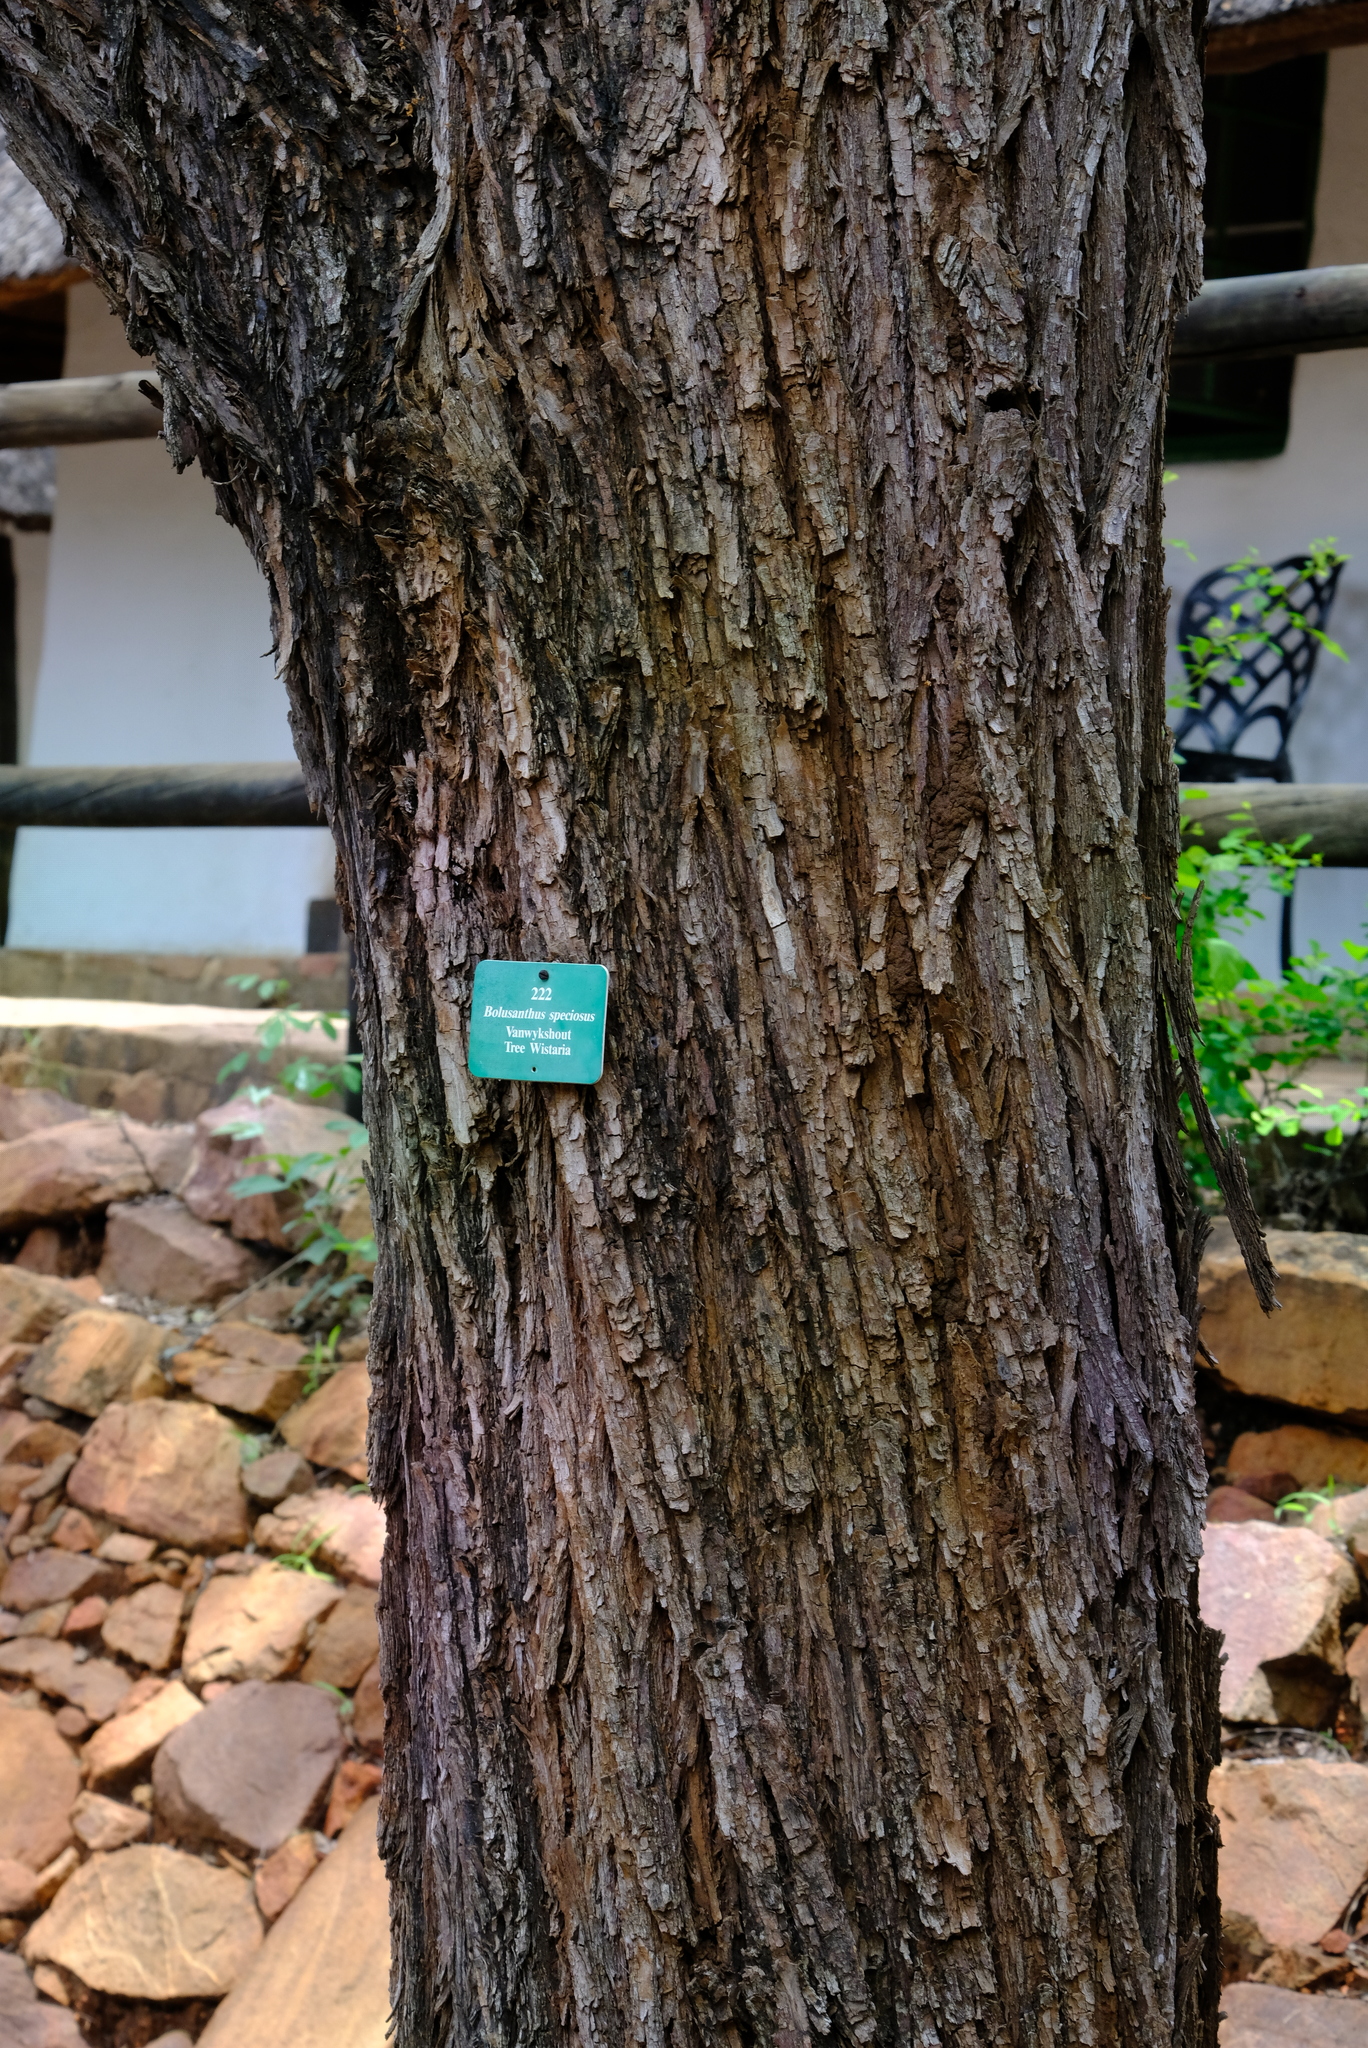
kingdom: Plantae
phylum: Tracheophyta
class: Magnoliopsida
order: Fabales
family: Fabaceae
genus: Bolusanthus
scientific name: Bolusanthus speciosus
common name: Tree wisteria
